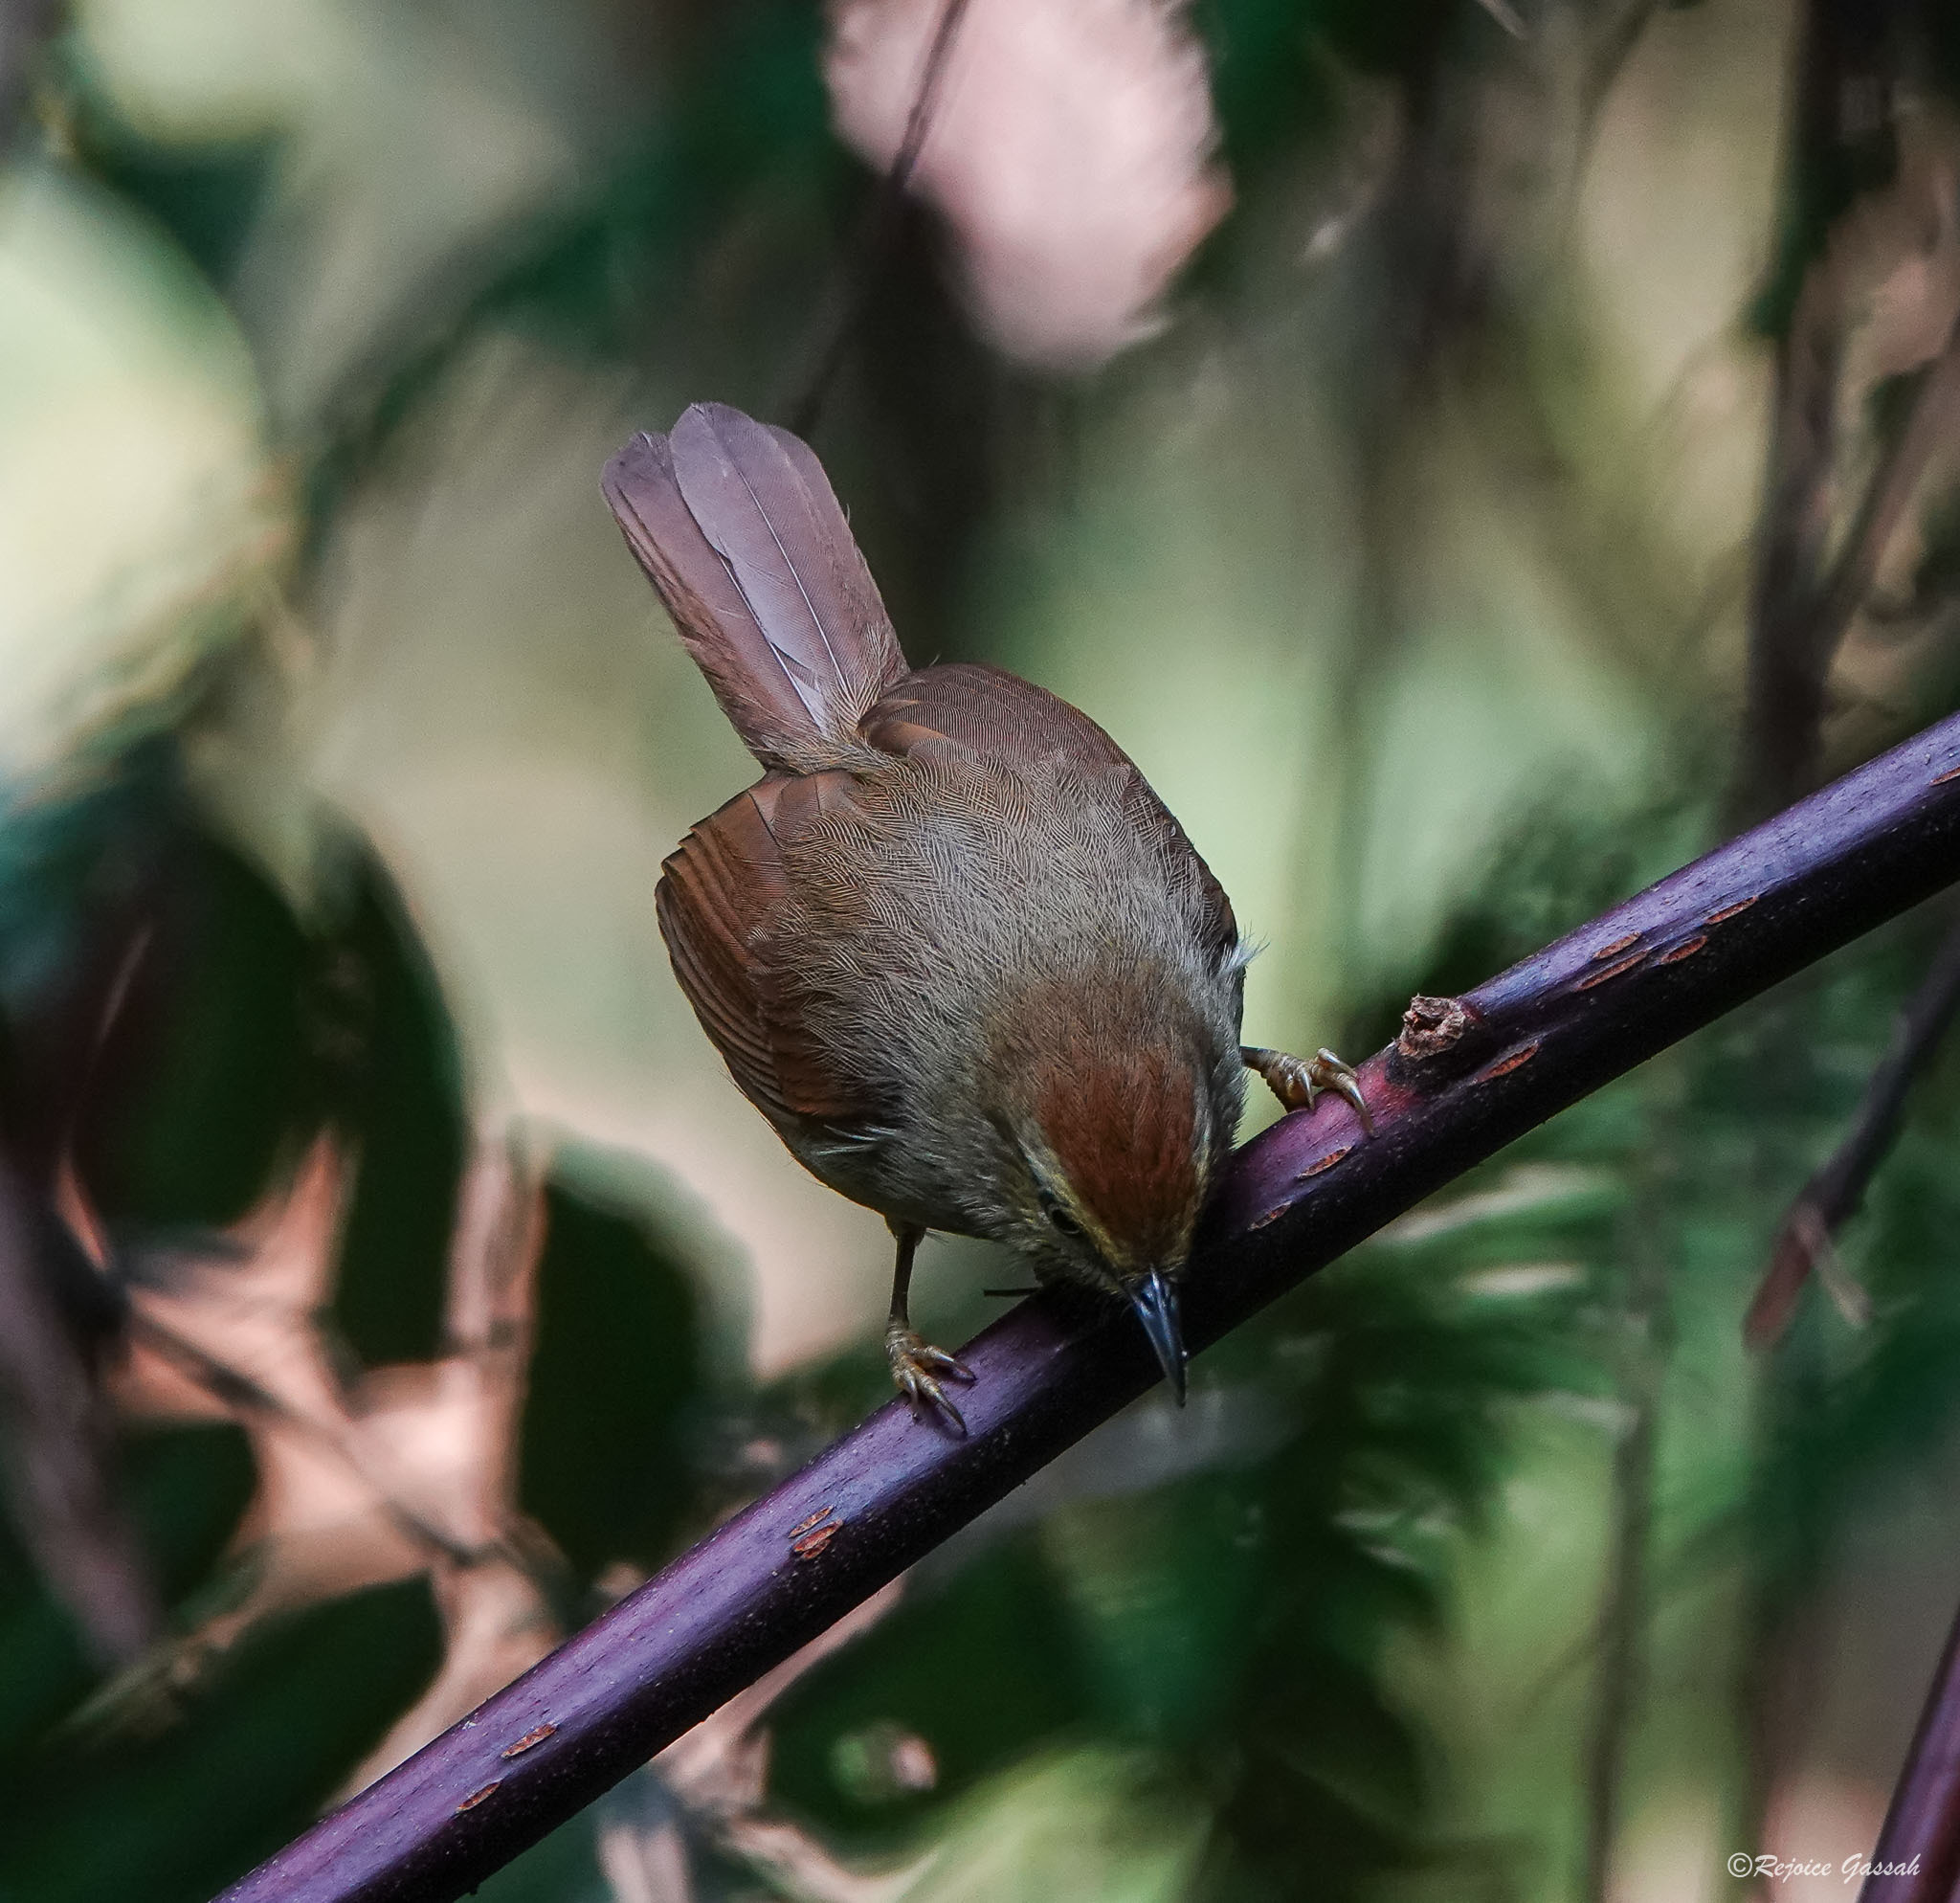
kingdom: Animalia
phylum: Chordata
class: Aves
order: Passeriformes
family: Timaliidae
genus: Macronus
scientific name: Macronus gularis
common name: Striped tit-babbler
